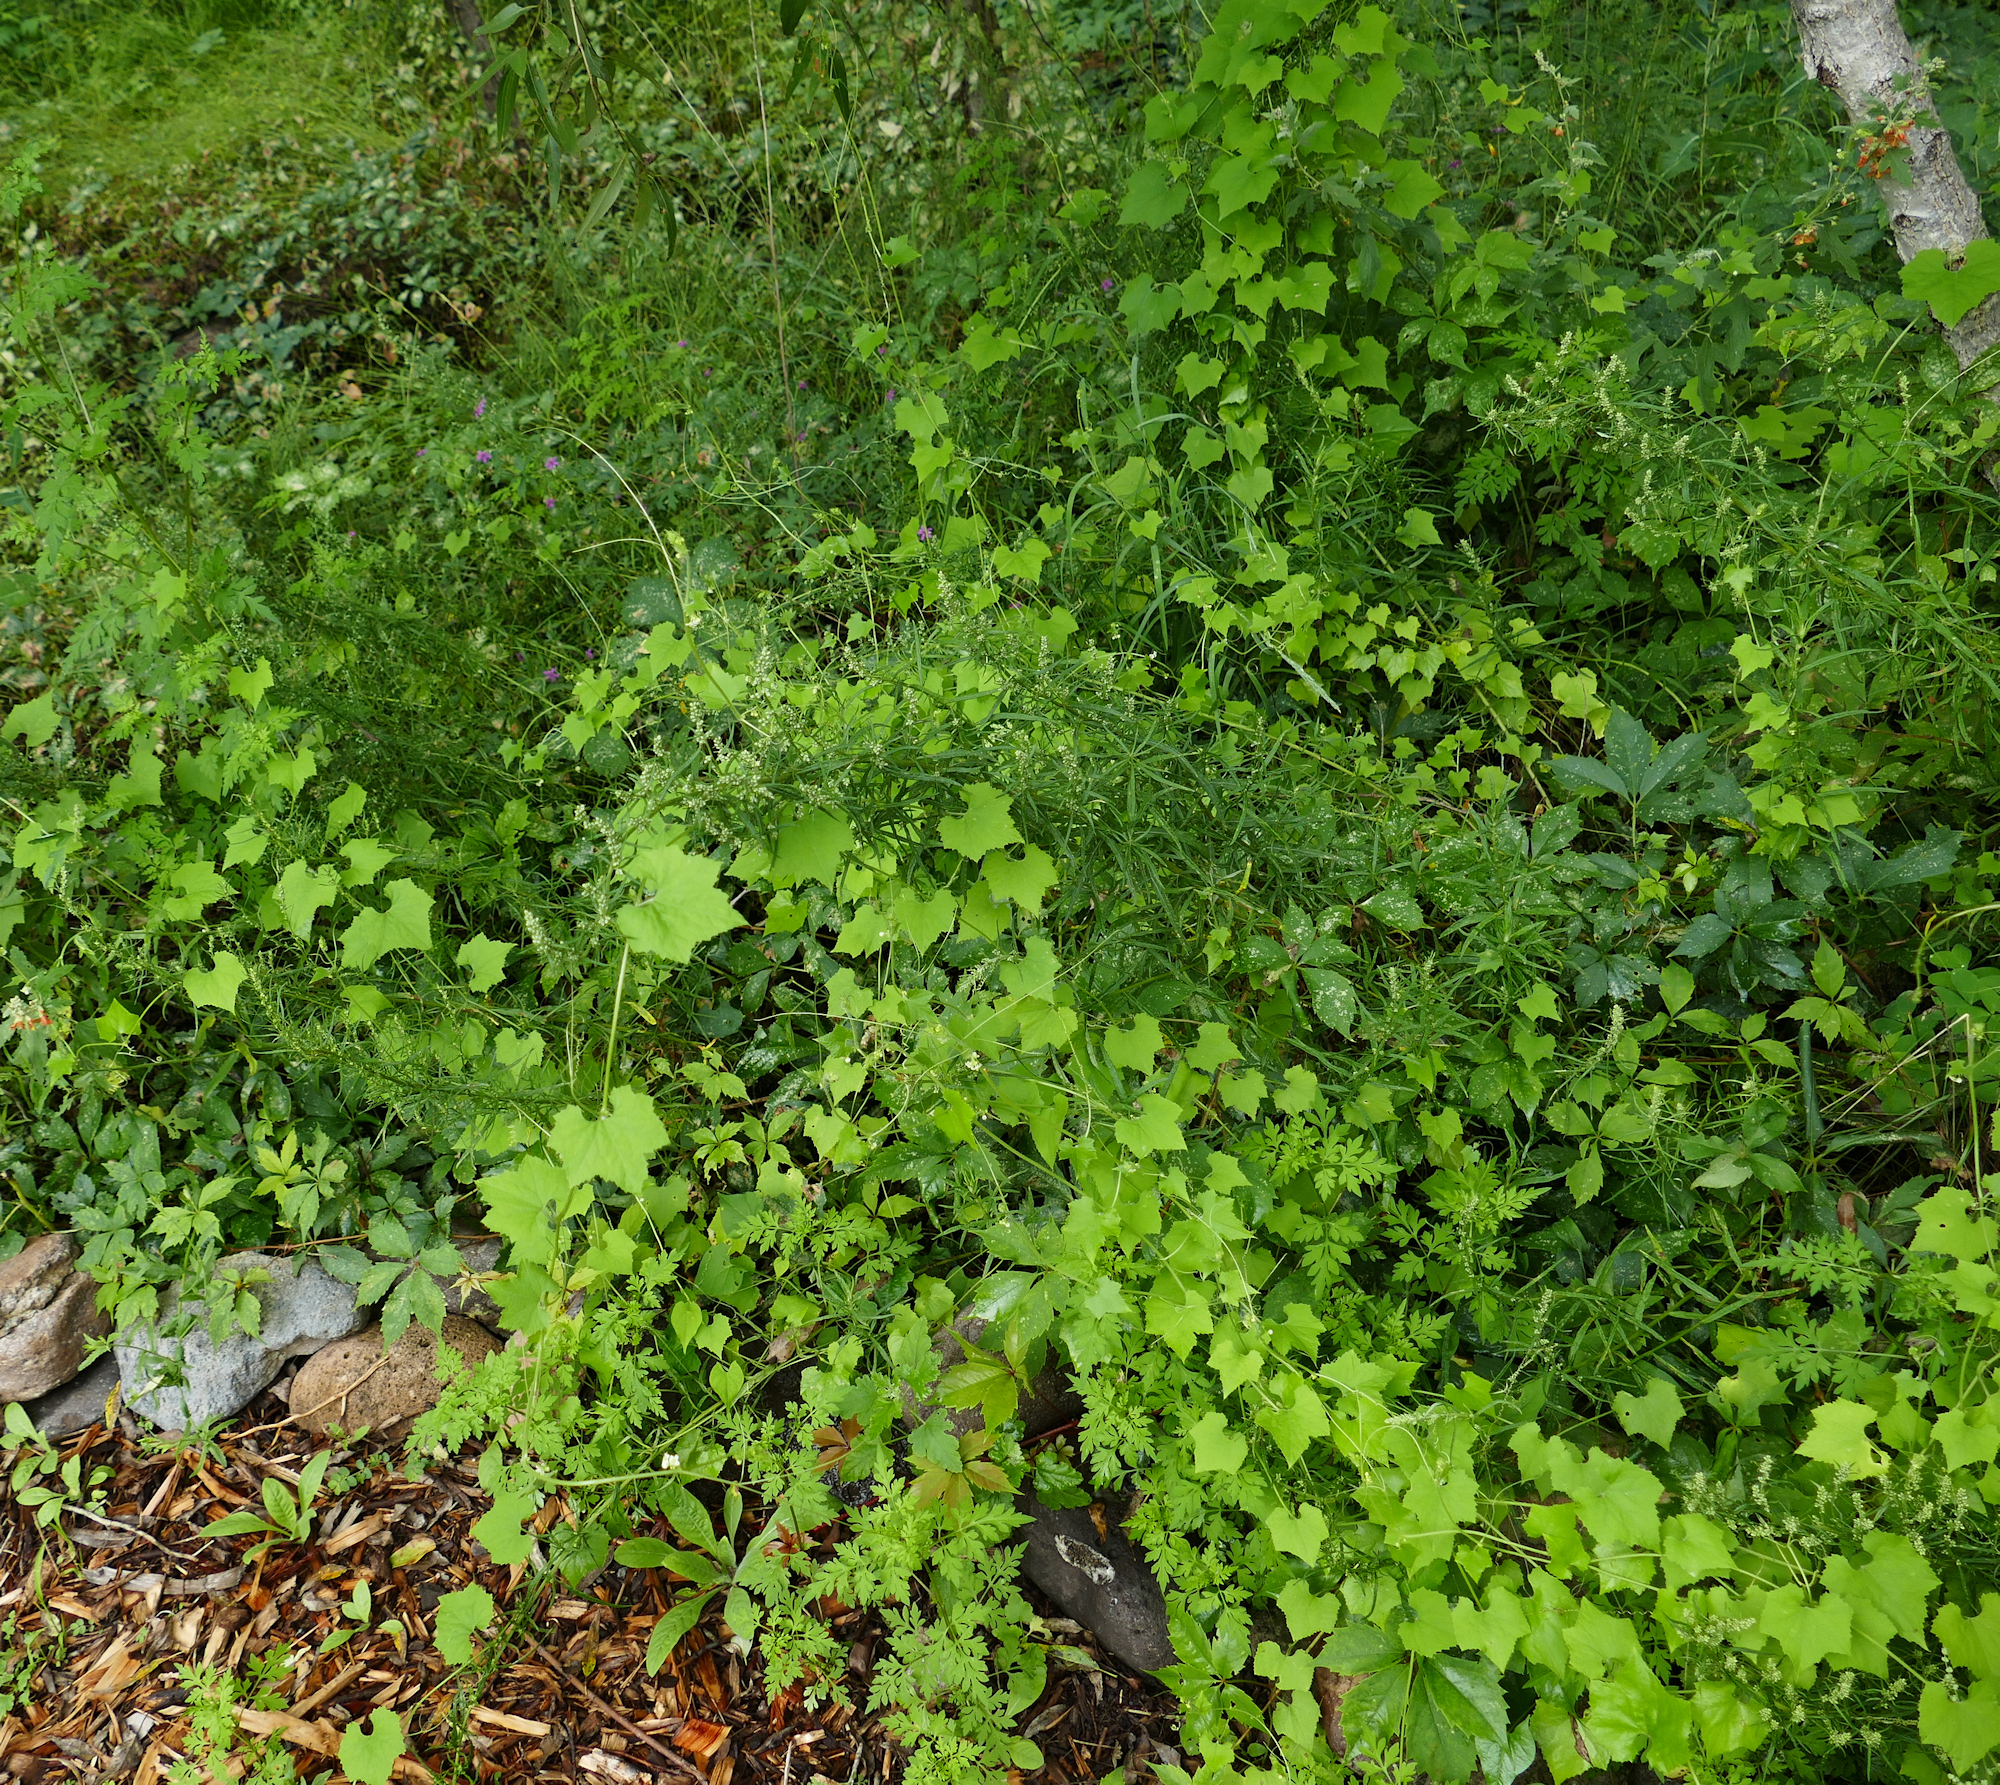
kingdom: Plantae
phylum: Tracheophyta
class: Magnoliopsida
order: Cucurbitales
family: Cucurbitaceae
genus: Sicyos
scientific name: Sicyos laciniatus
